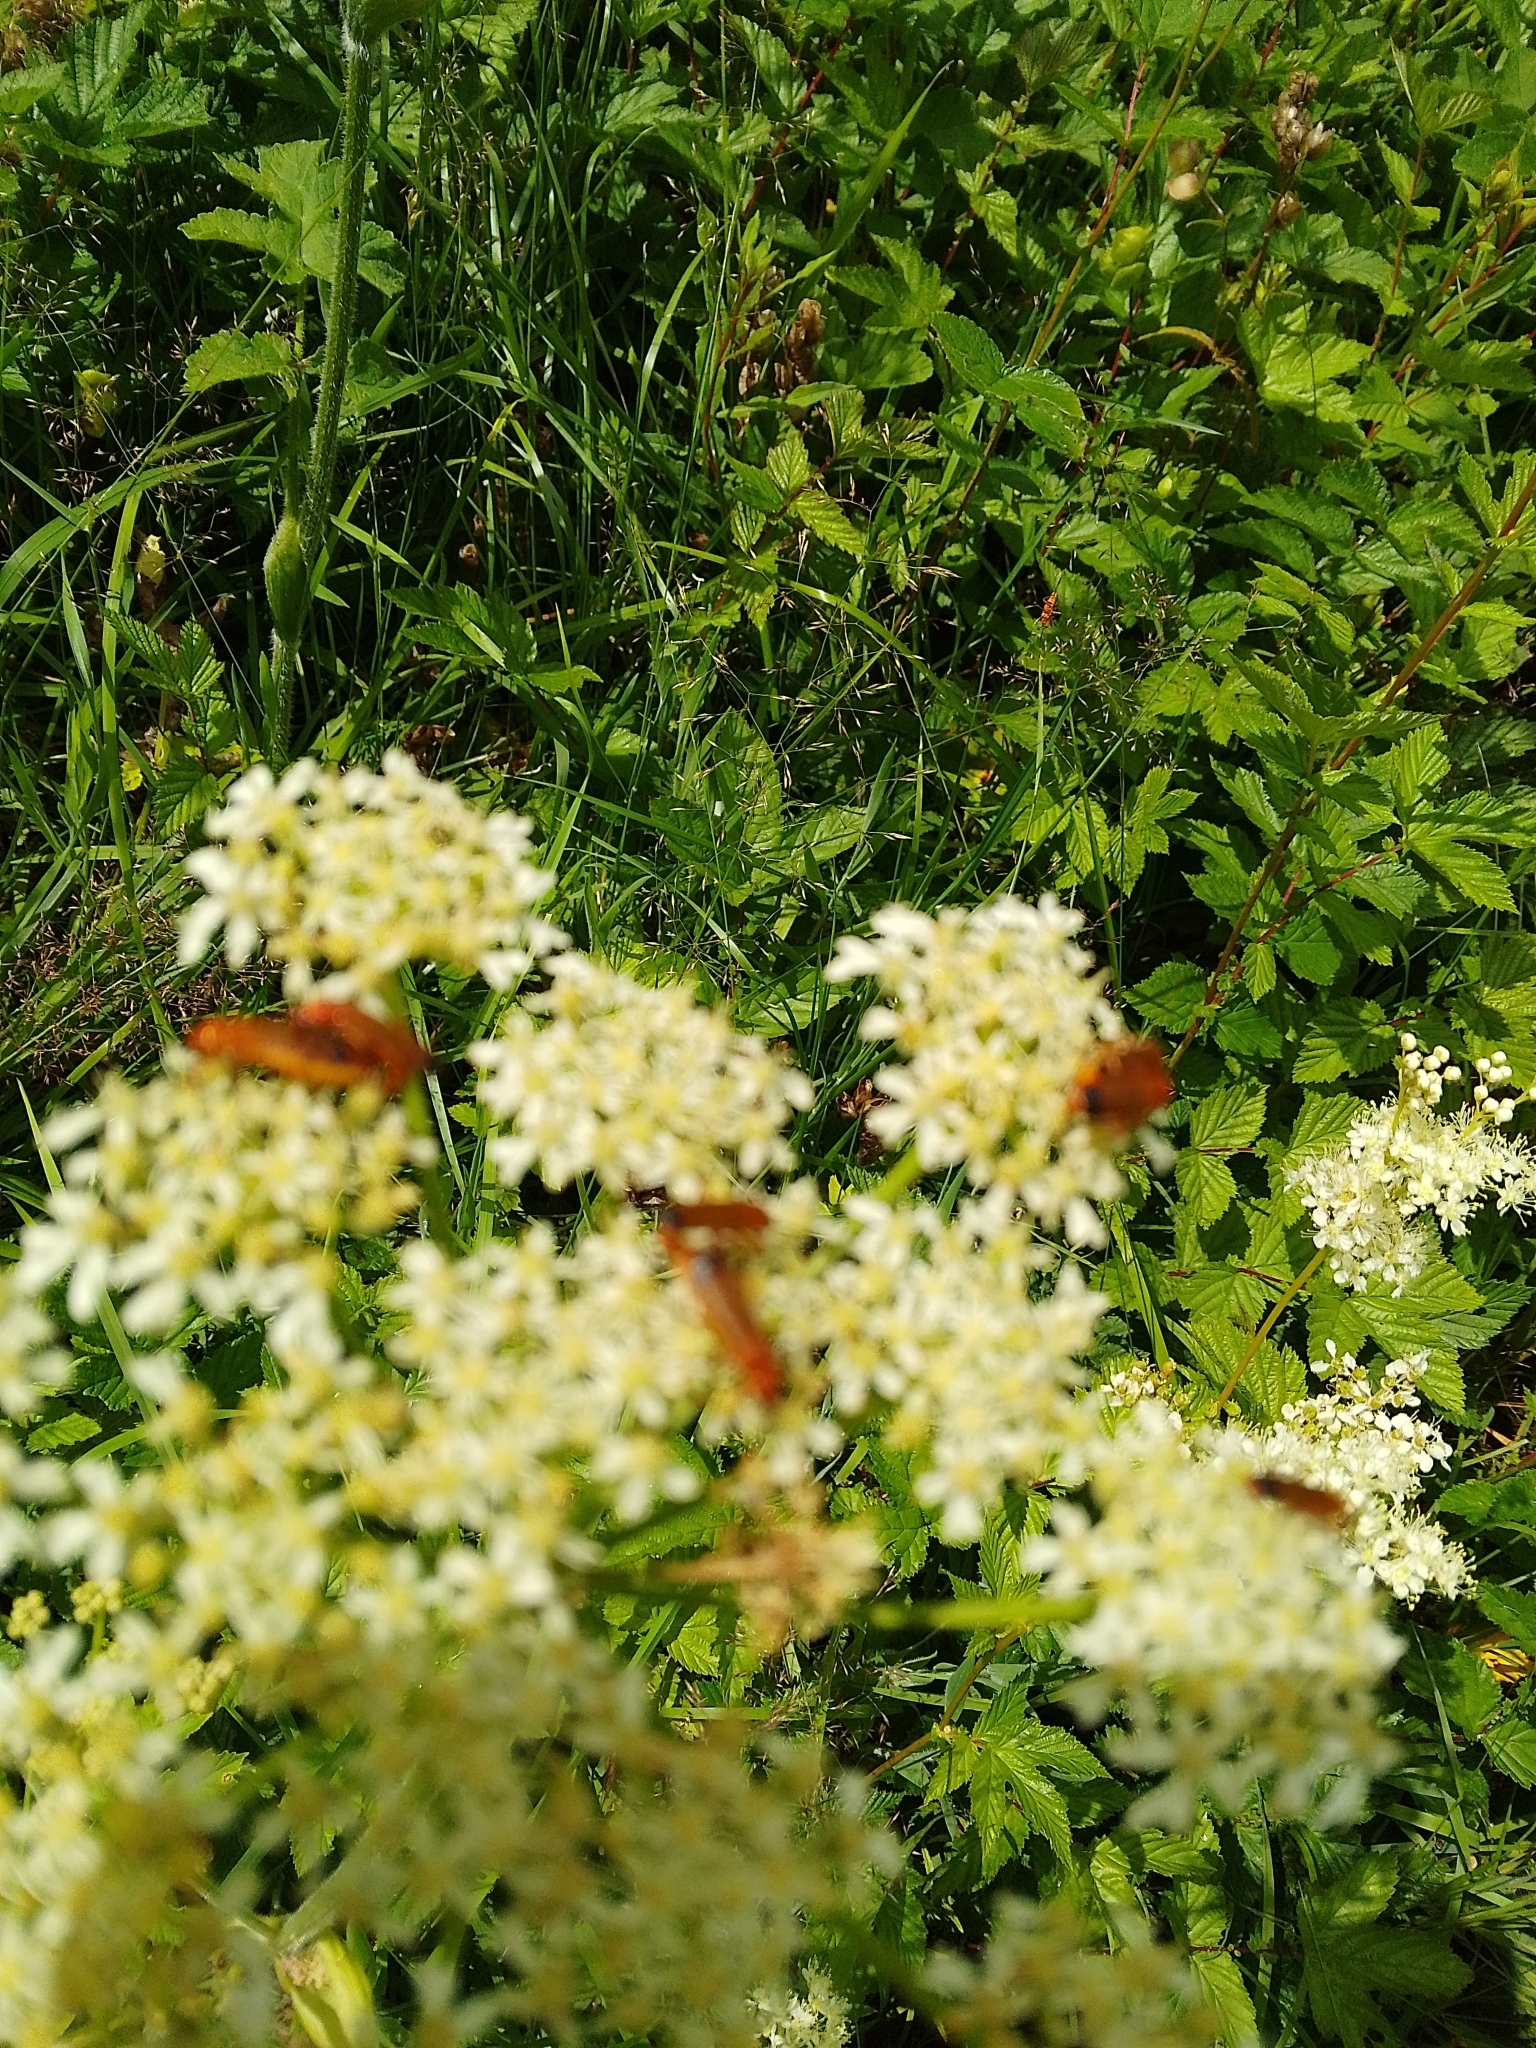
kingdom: Animalia
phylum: Arthropoda
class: Insecta
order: Coleoptera
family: Cantharidae
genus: Rhagonycha
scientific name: Rhagonycha fulva
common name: Common red soldier beetle
